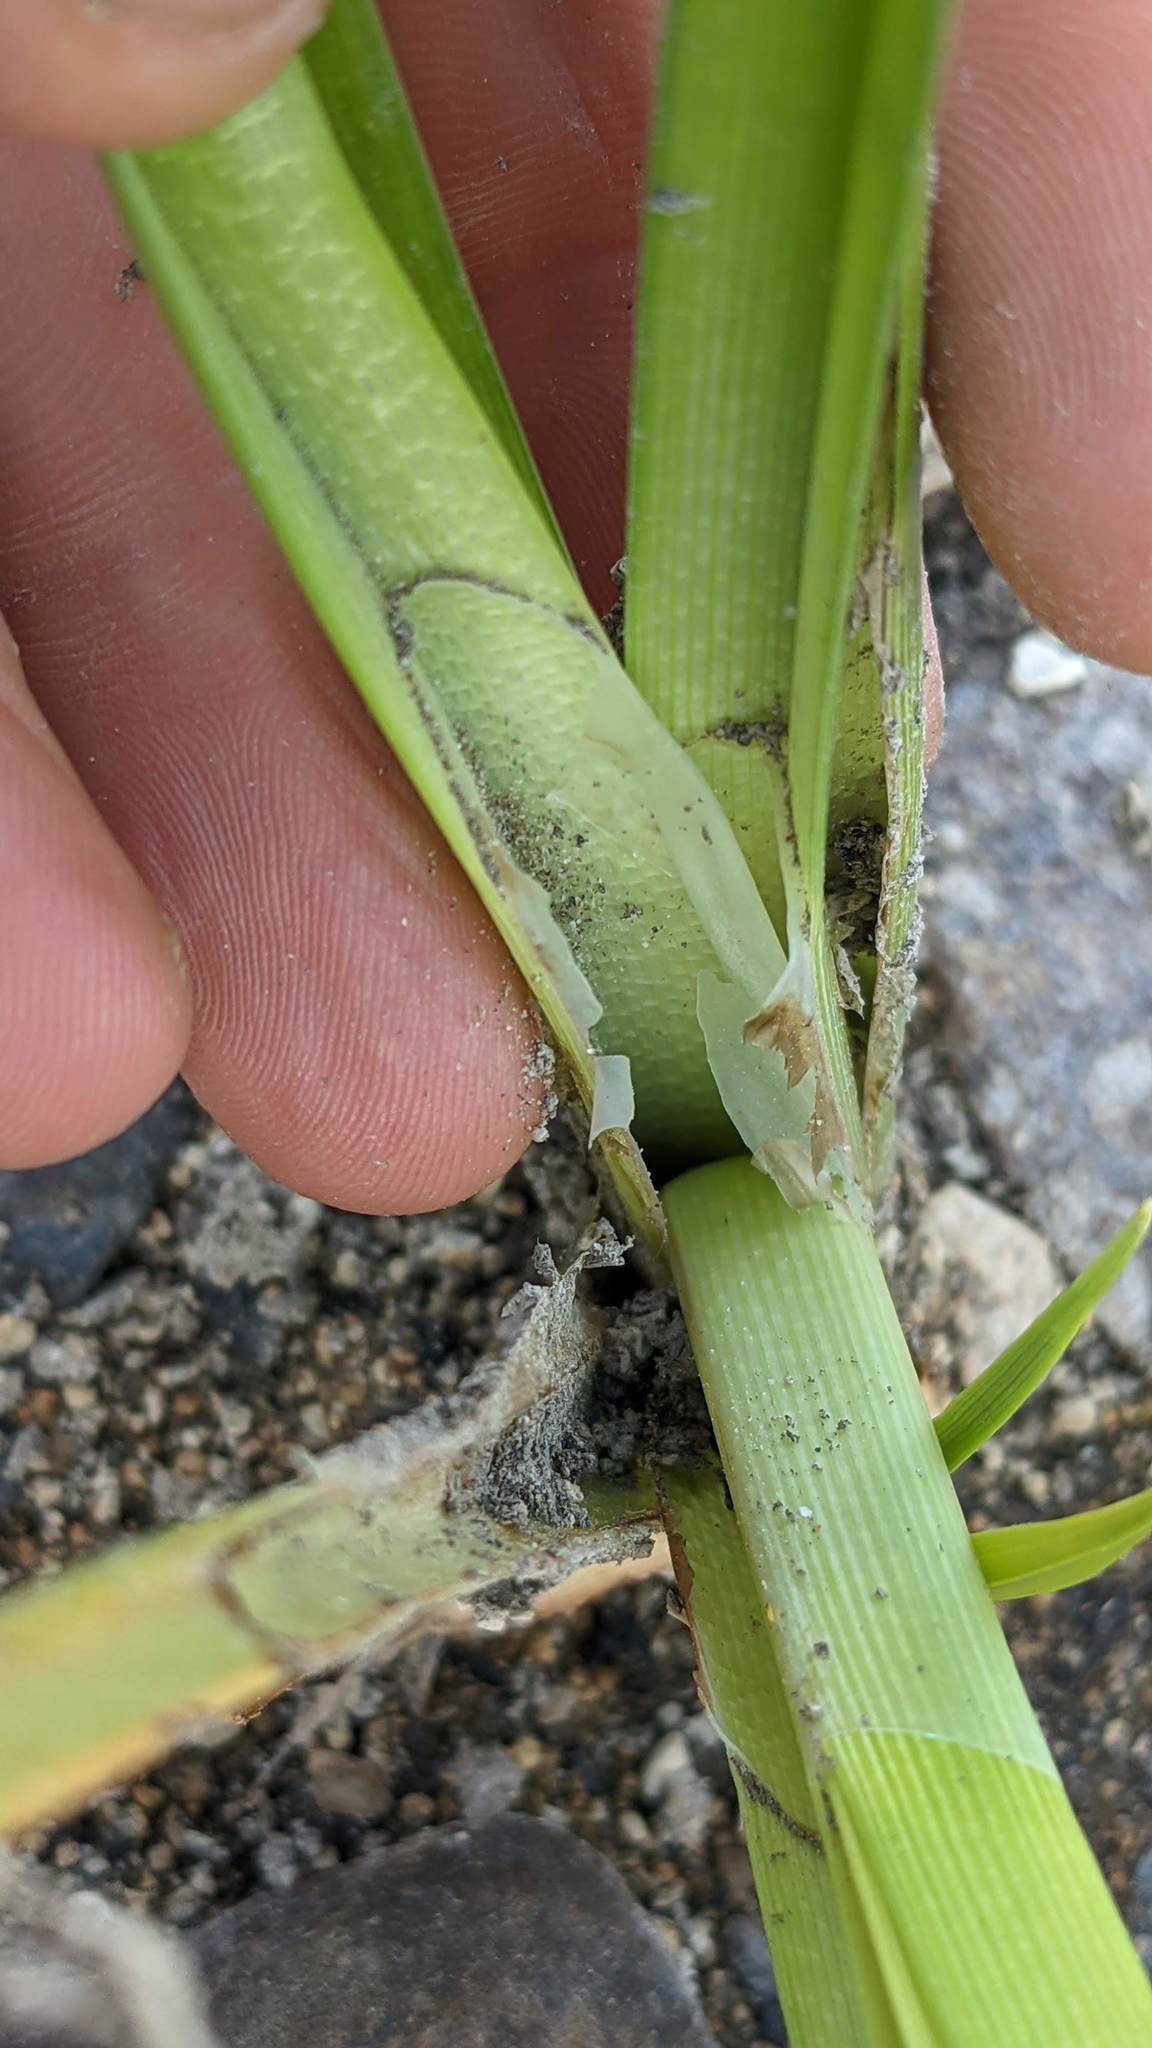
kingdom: Plantae
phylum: Tracheophyta
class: Liliopsida
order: Poales
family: Cyperaceae
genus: Carex
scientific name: Carex vesicaria
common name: Bladder-sedge
